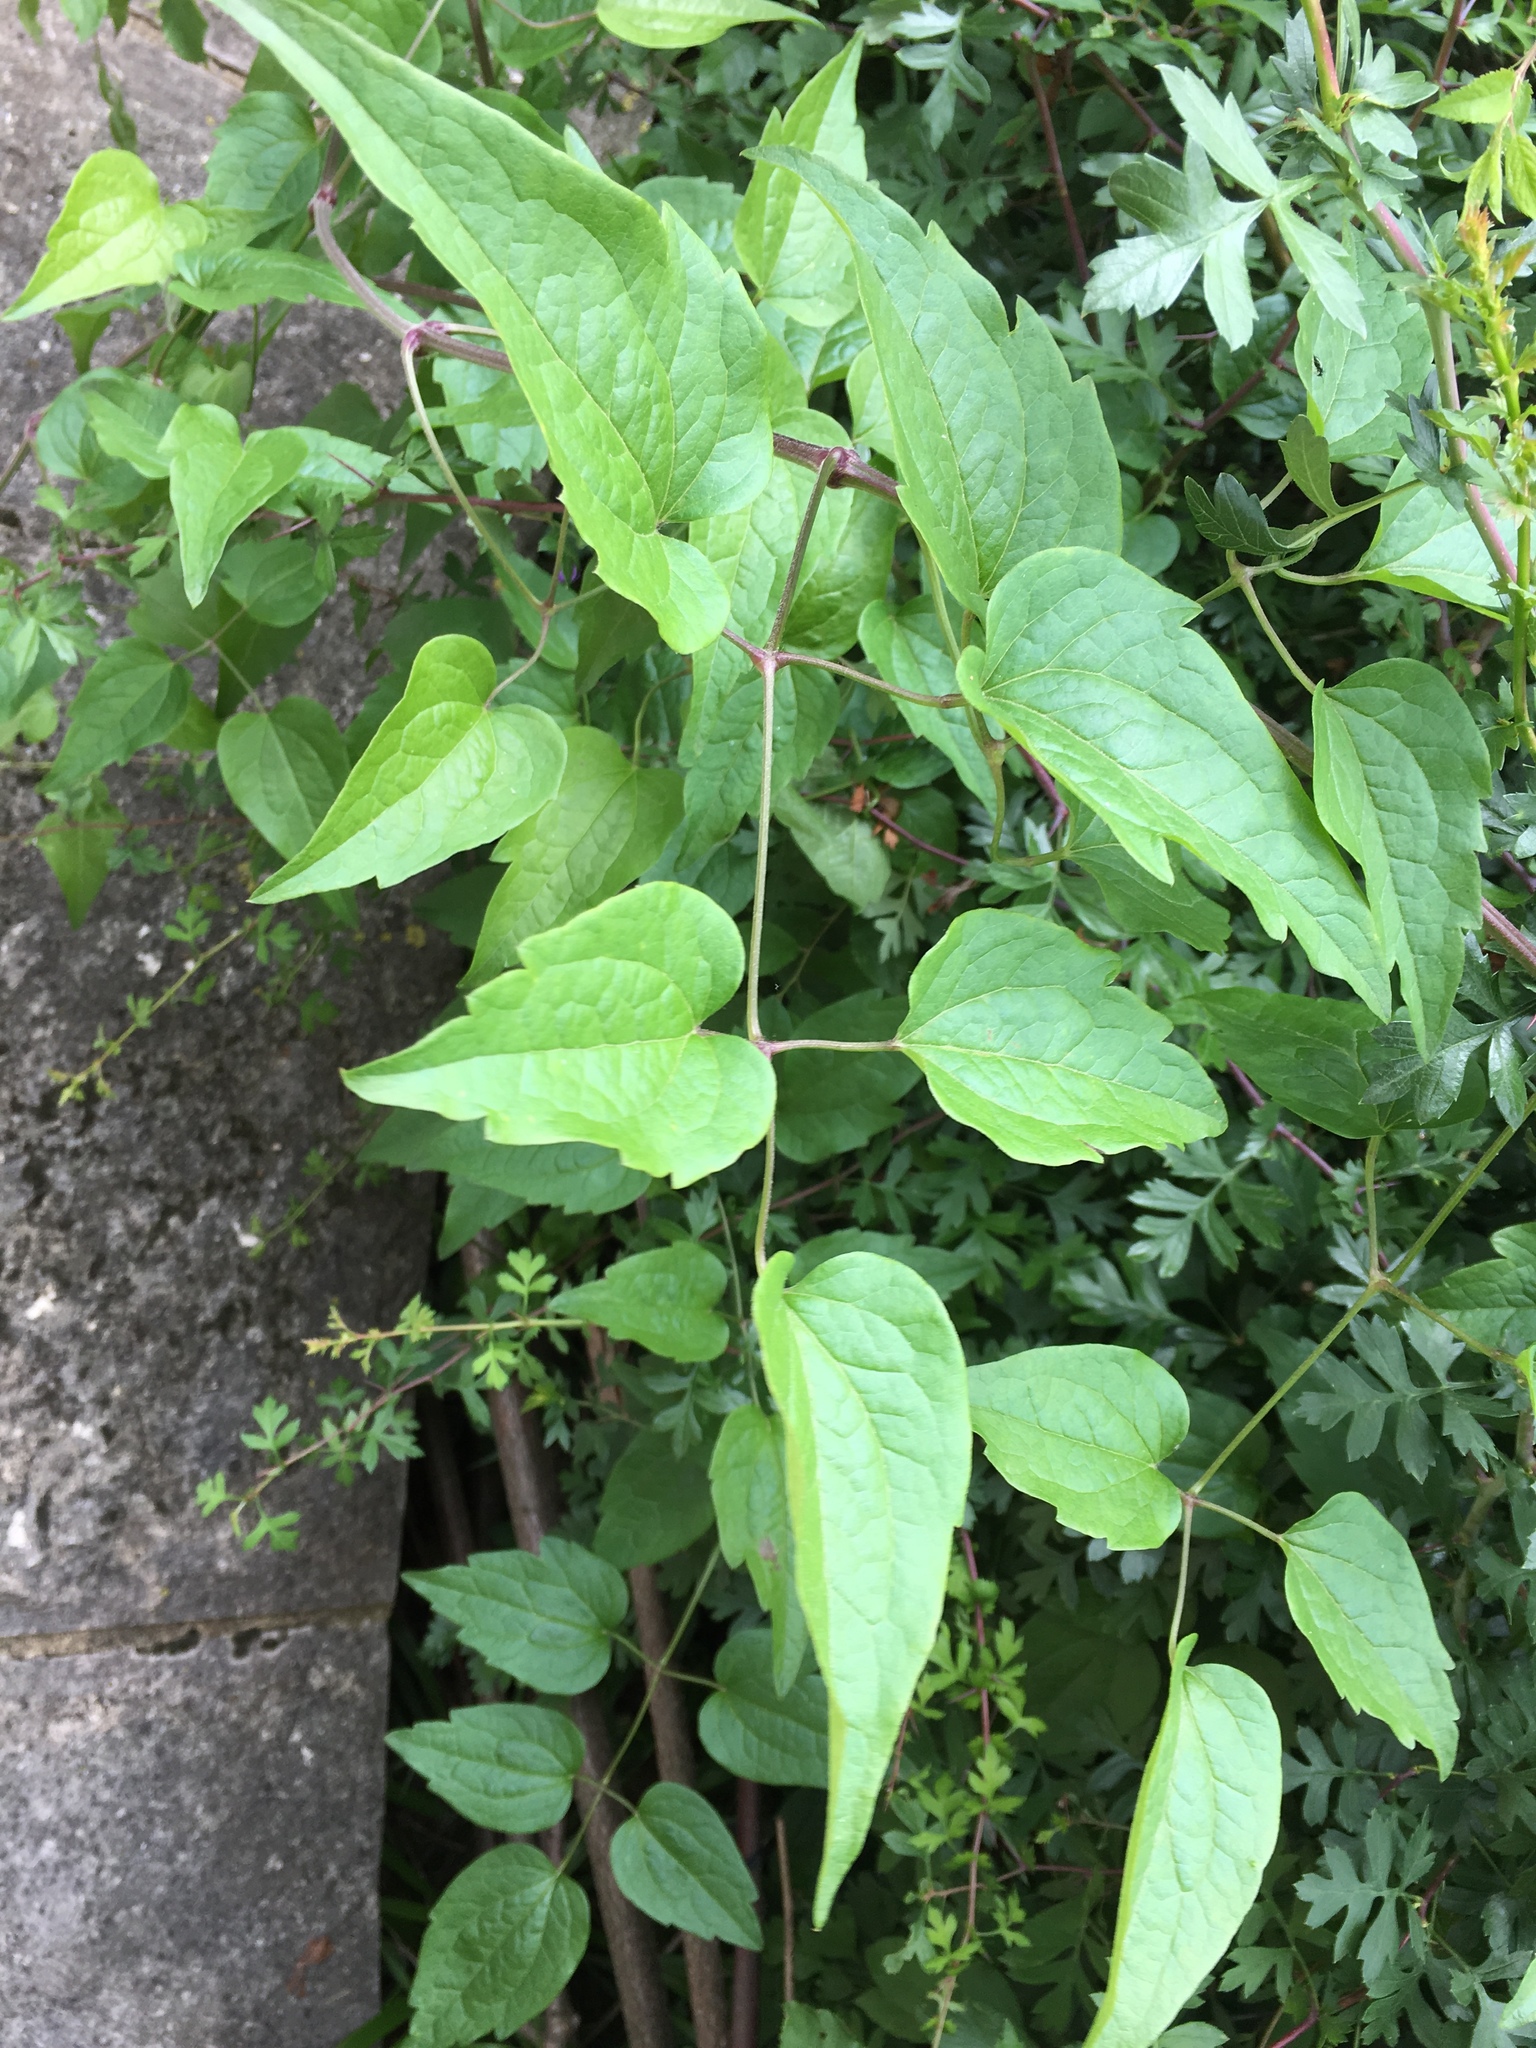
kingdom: Plantae
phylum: Tracheophyta
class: Magnoliopsida
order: Ranunculales
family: Ranunculaceae
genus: Clematis
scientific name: Clematis vitalba
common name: Evergreen clematis
